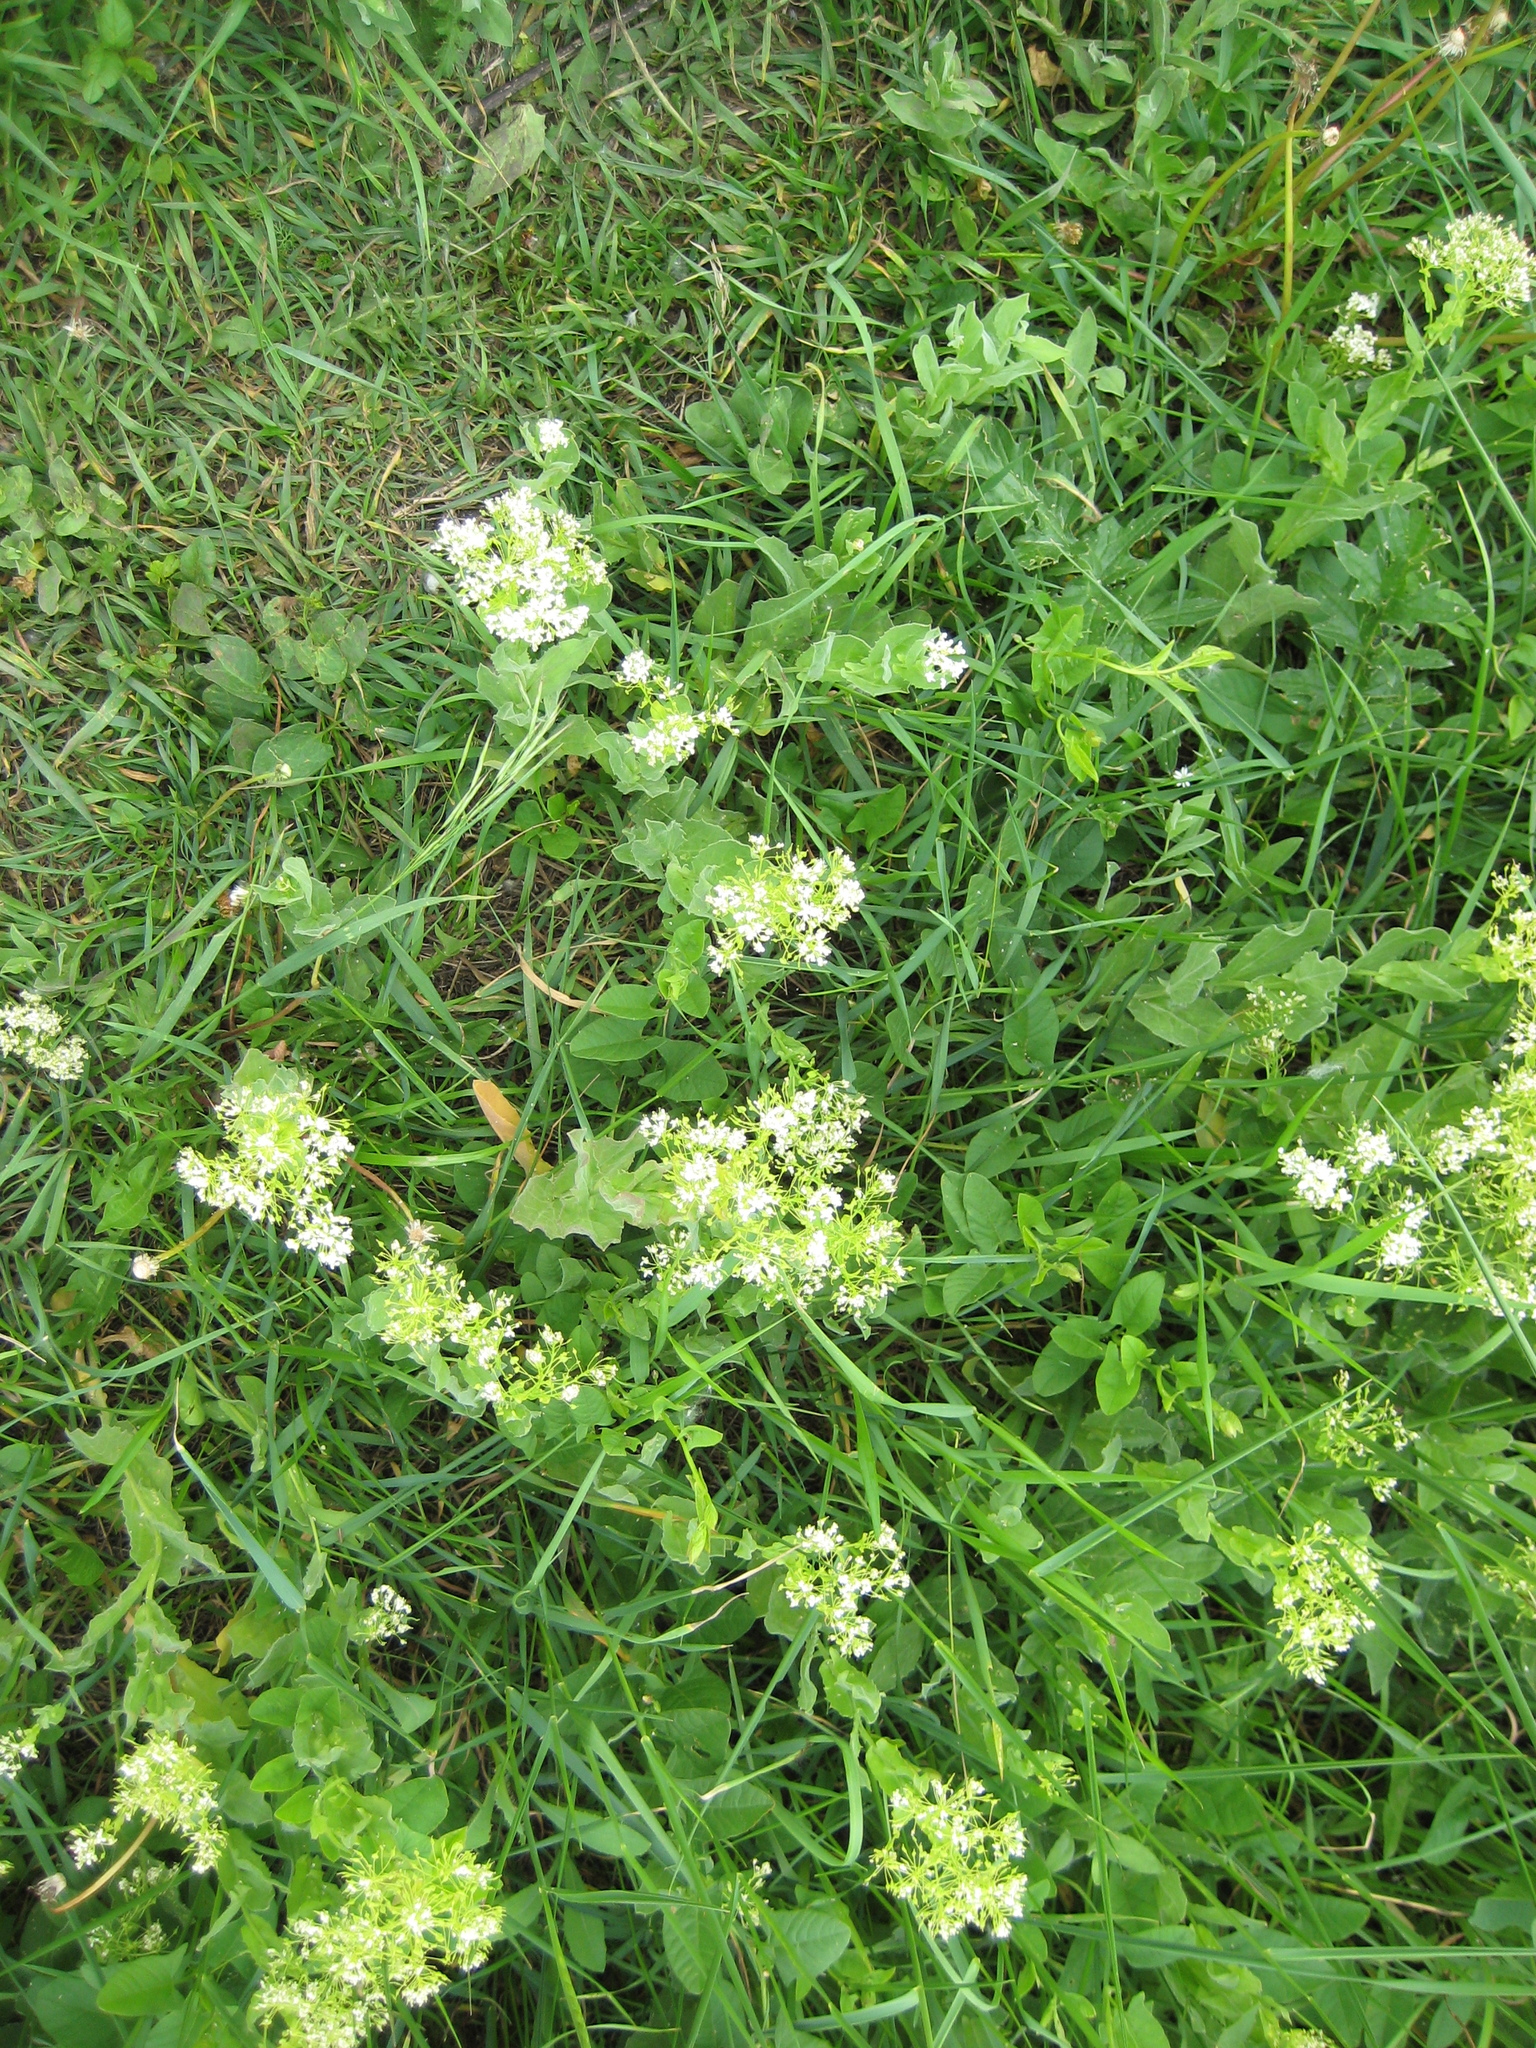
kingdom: Plantae
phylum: Tracheophyta
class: Magnoliopsida
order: Brassicales
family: Brassicaceae
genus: Lepidium
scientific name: Lepidium draba
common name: Hoary cress
